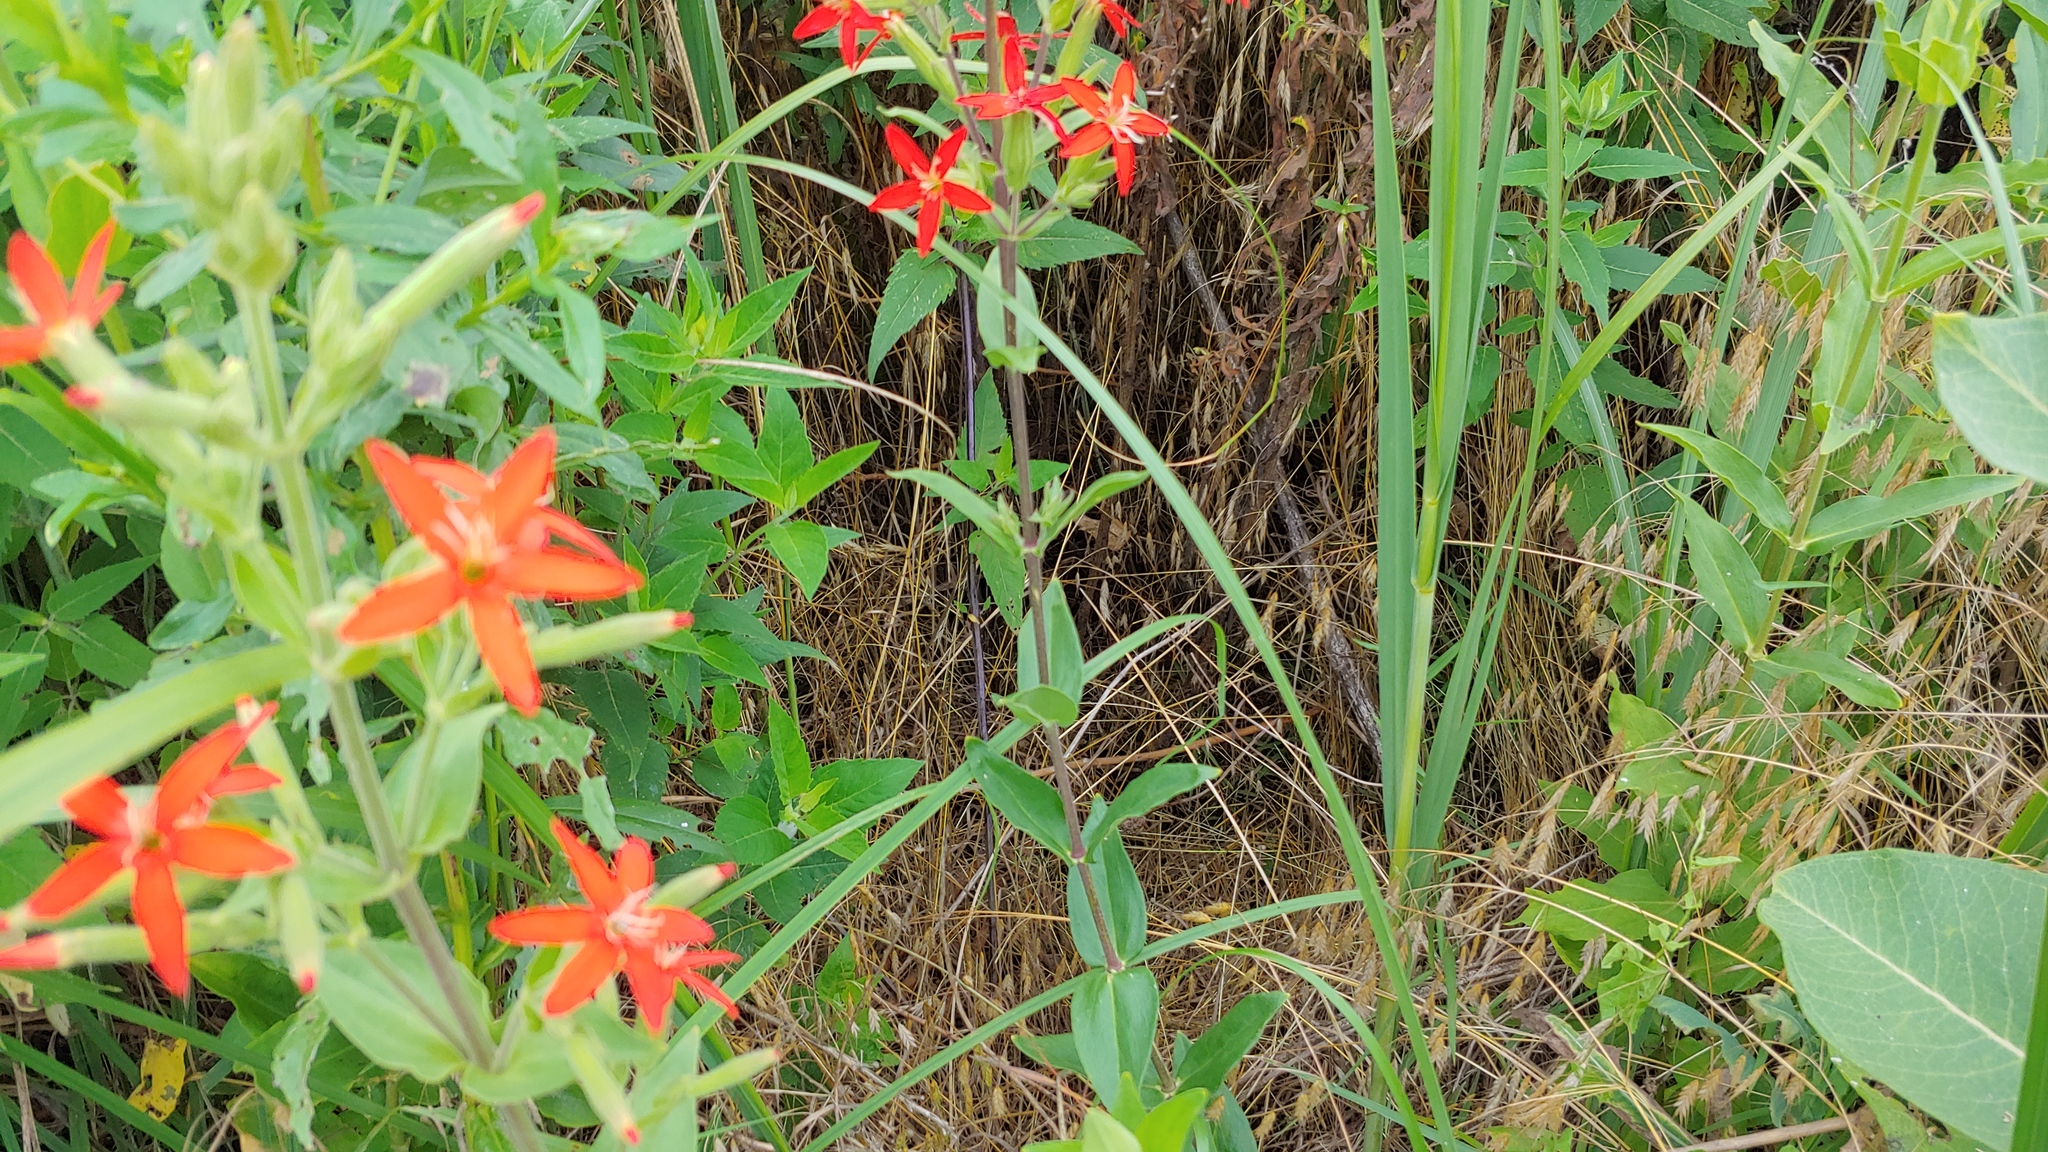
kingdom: Plantae
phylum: Tracheophyta
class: Magnoliopsida
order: Caryophyllales
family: Caryophyllaceae
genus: Silene
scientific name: Silene regia
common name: Royal catchfly
